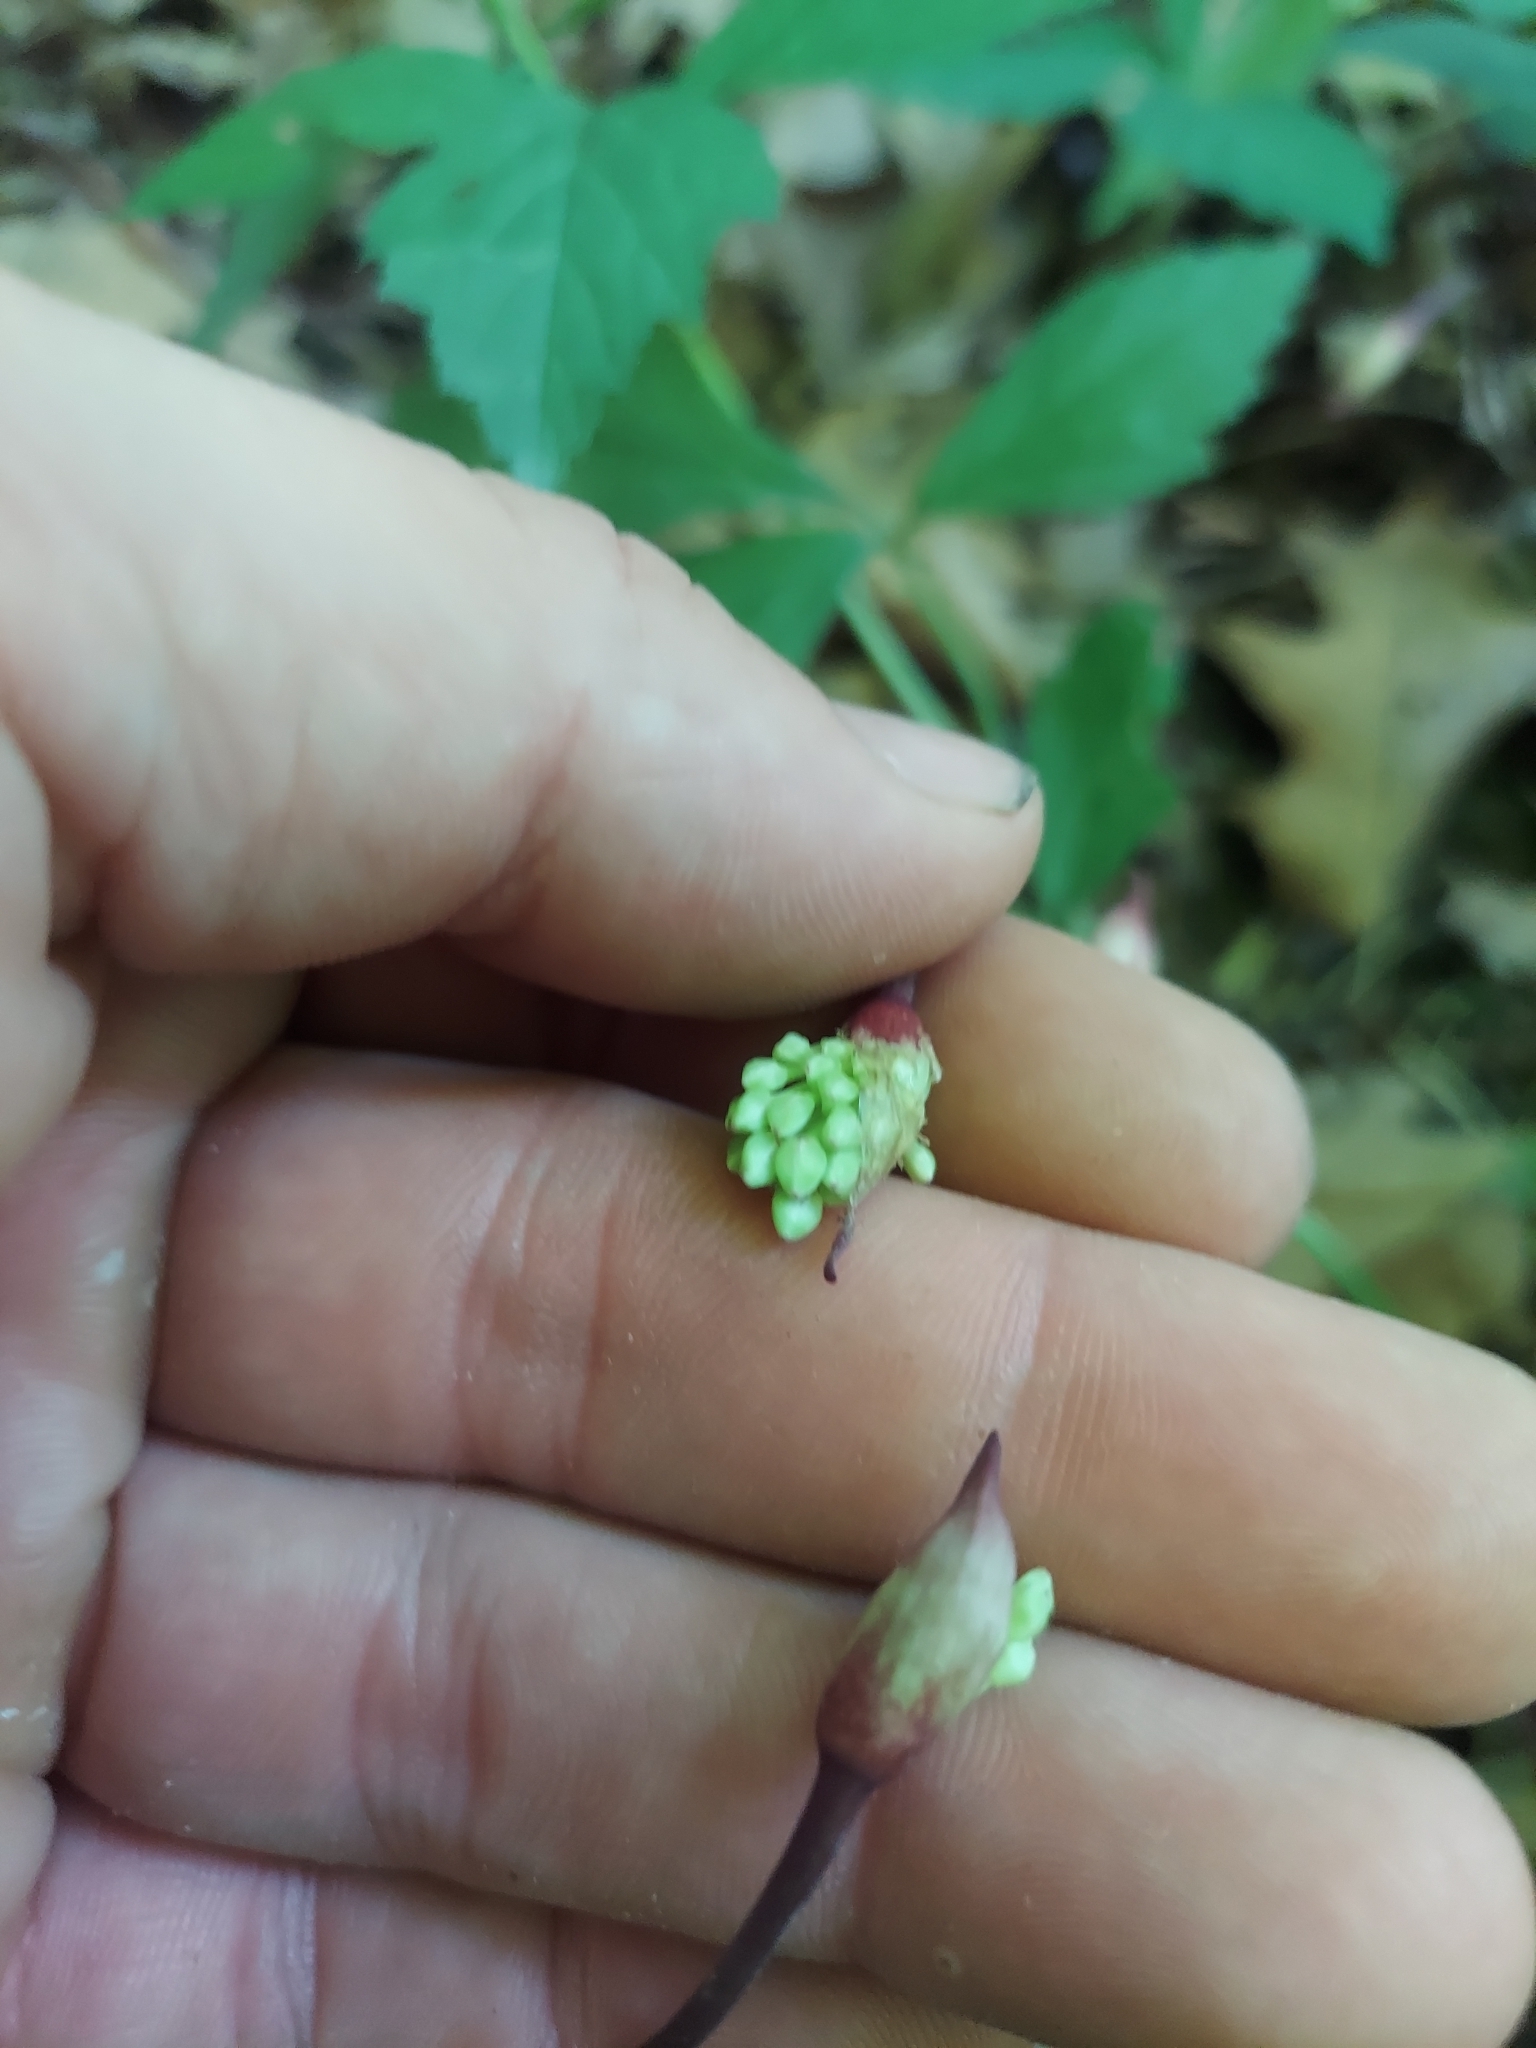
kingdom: Plantae
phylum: Tracheophyta
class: Liliopsida
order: Asparagales
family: Amaryllidaceae
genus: Allium
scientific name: Allium tricoccum
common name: Ramp
